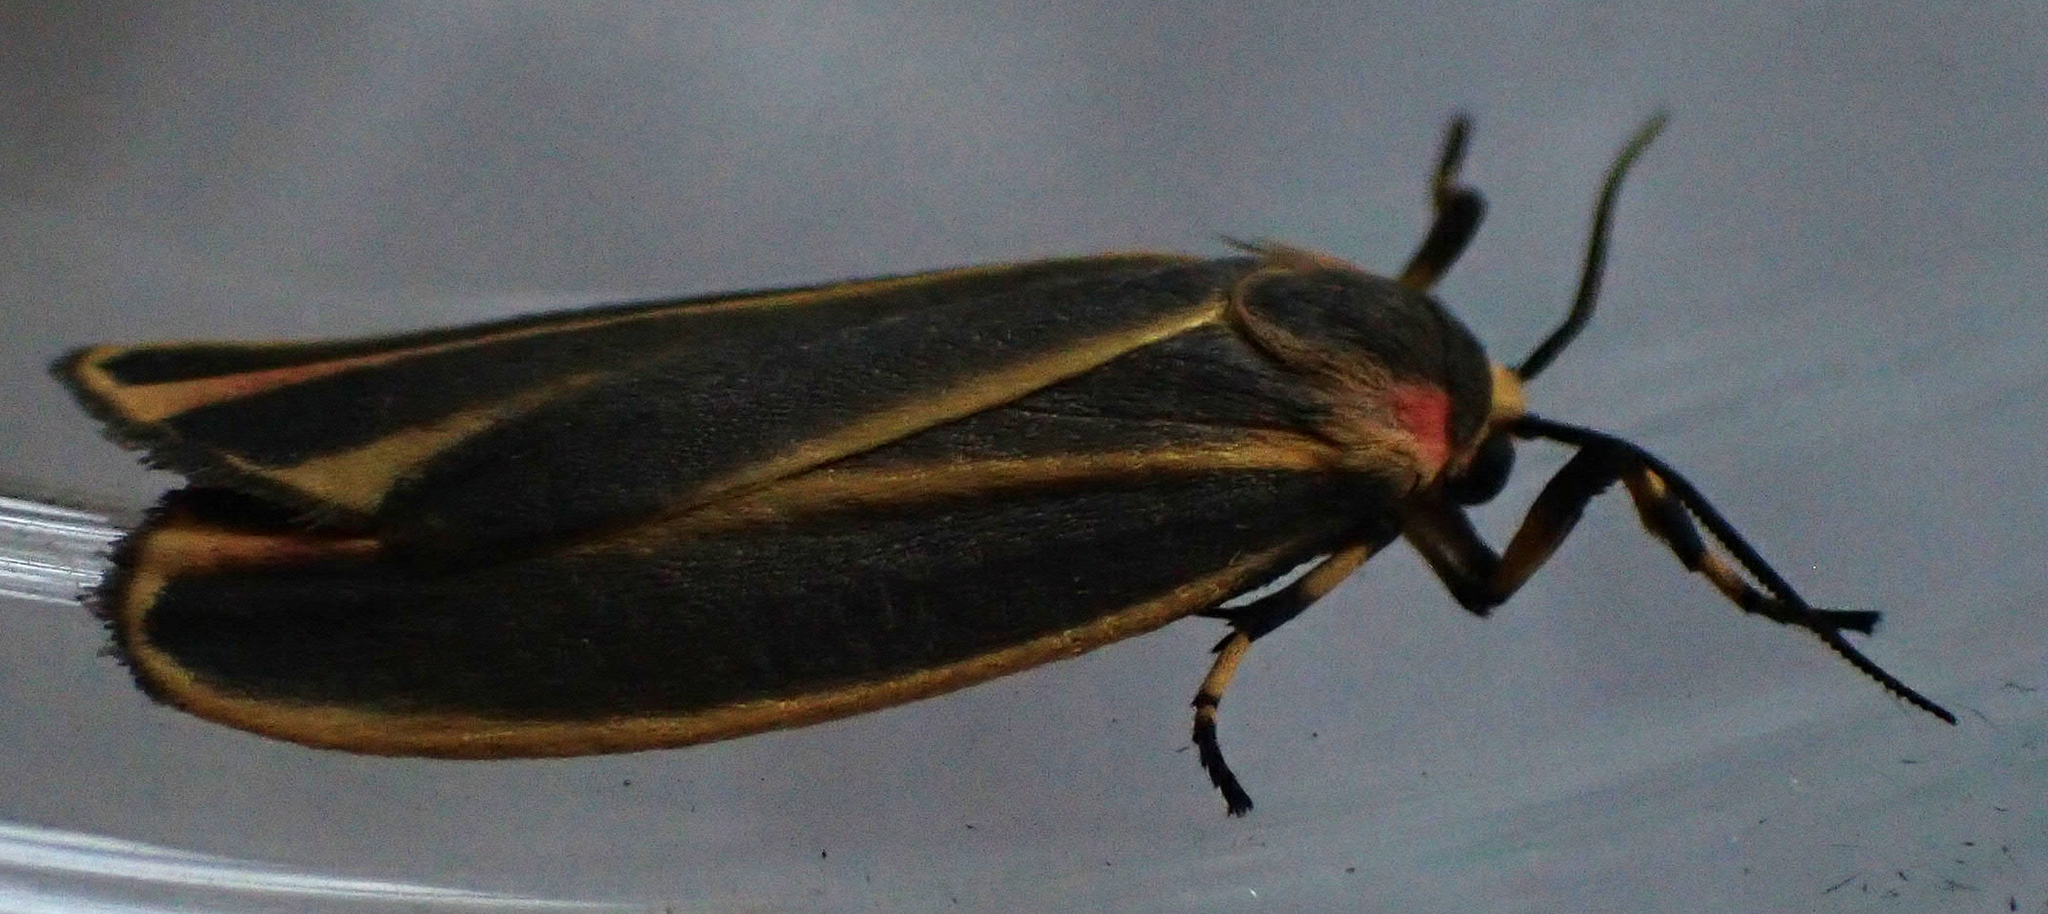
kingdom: Animalia
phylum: Arthropoda
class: Insecta
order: Lepidoptera
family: Erebidae
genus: Hypoprepia
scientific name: Hypoprepia fucosa
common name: Painted lichen moth
